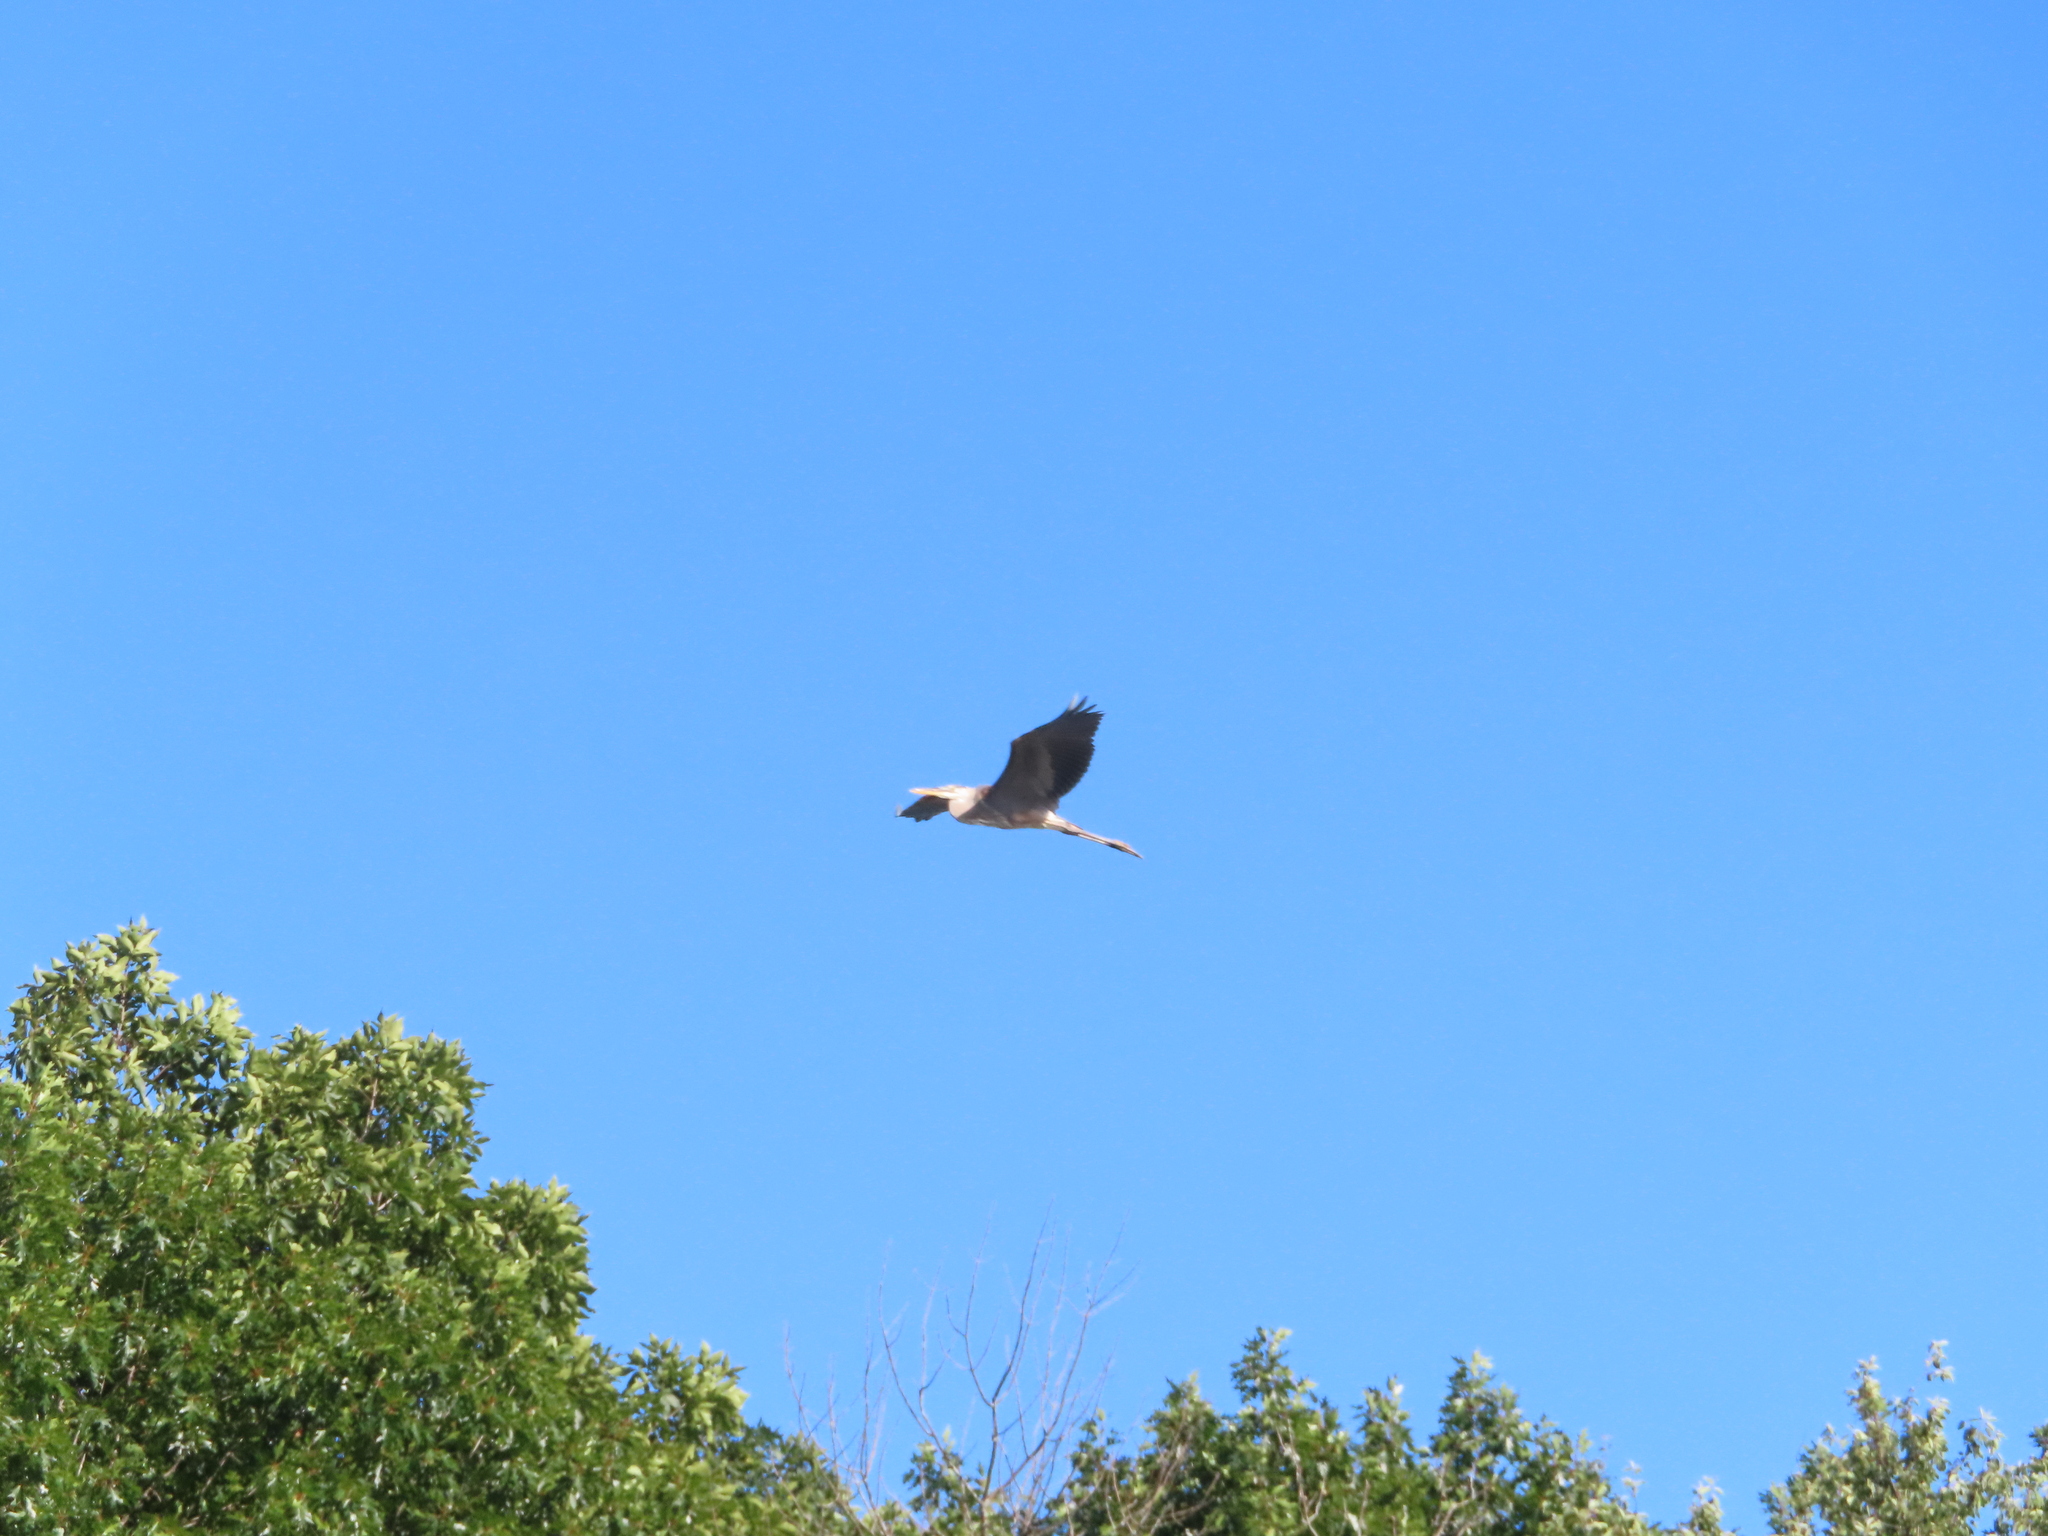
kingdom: Animalia
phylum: Chordata
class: Aves
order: Pelecaniformes
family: Ardeidae
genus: Ardea
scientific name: Ardea herodias
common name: Great blue heron
